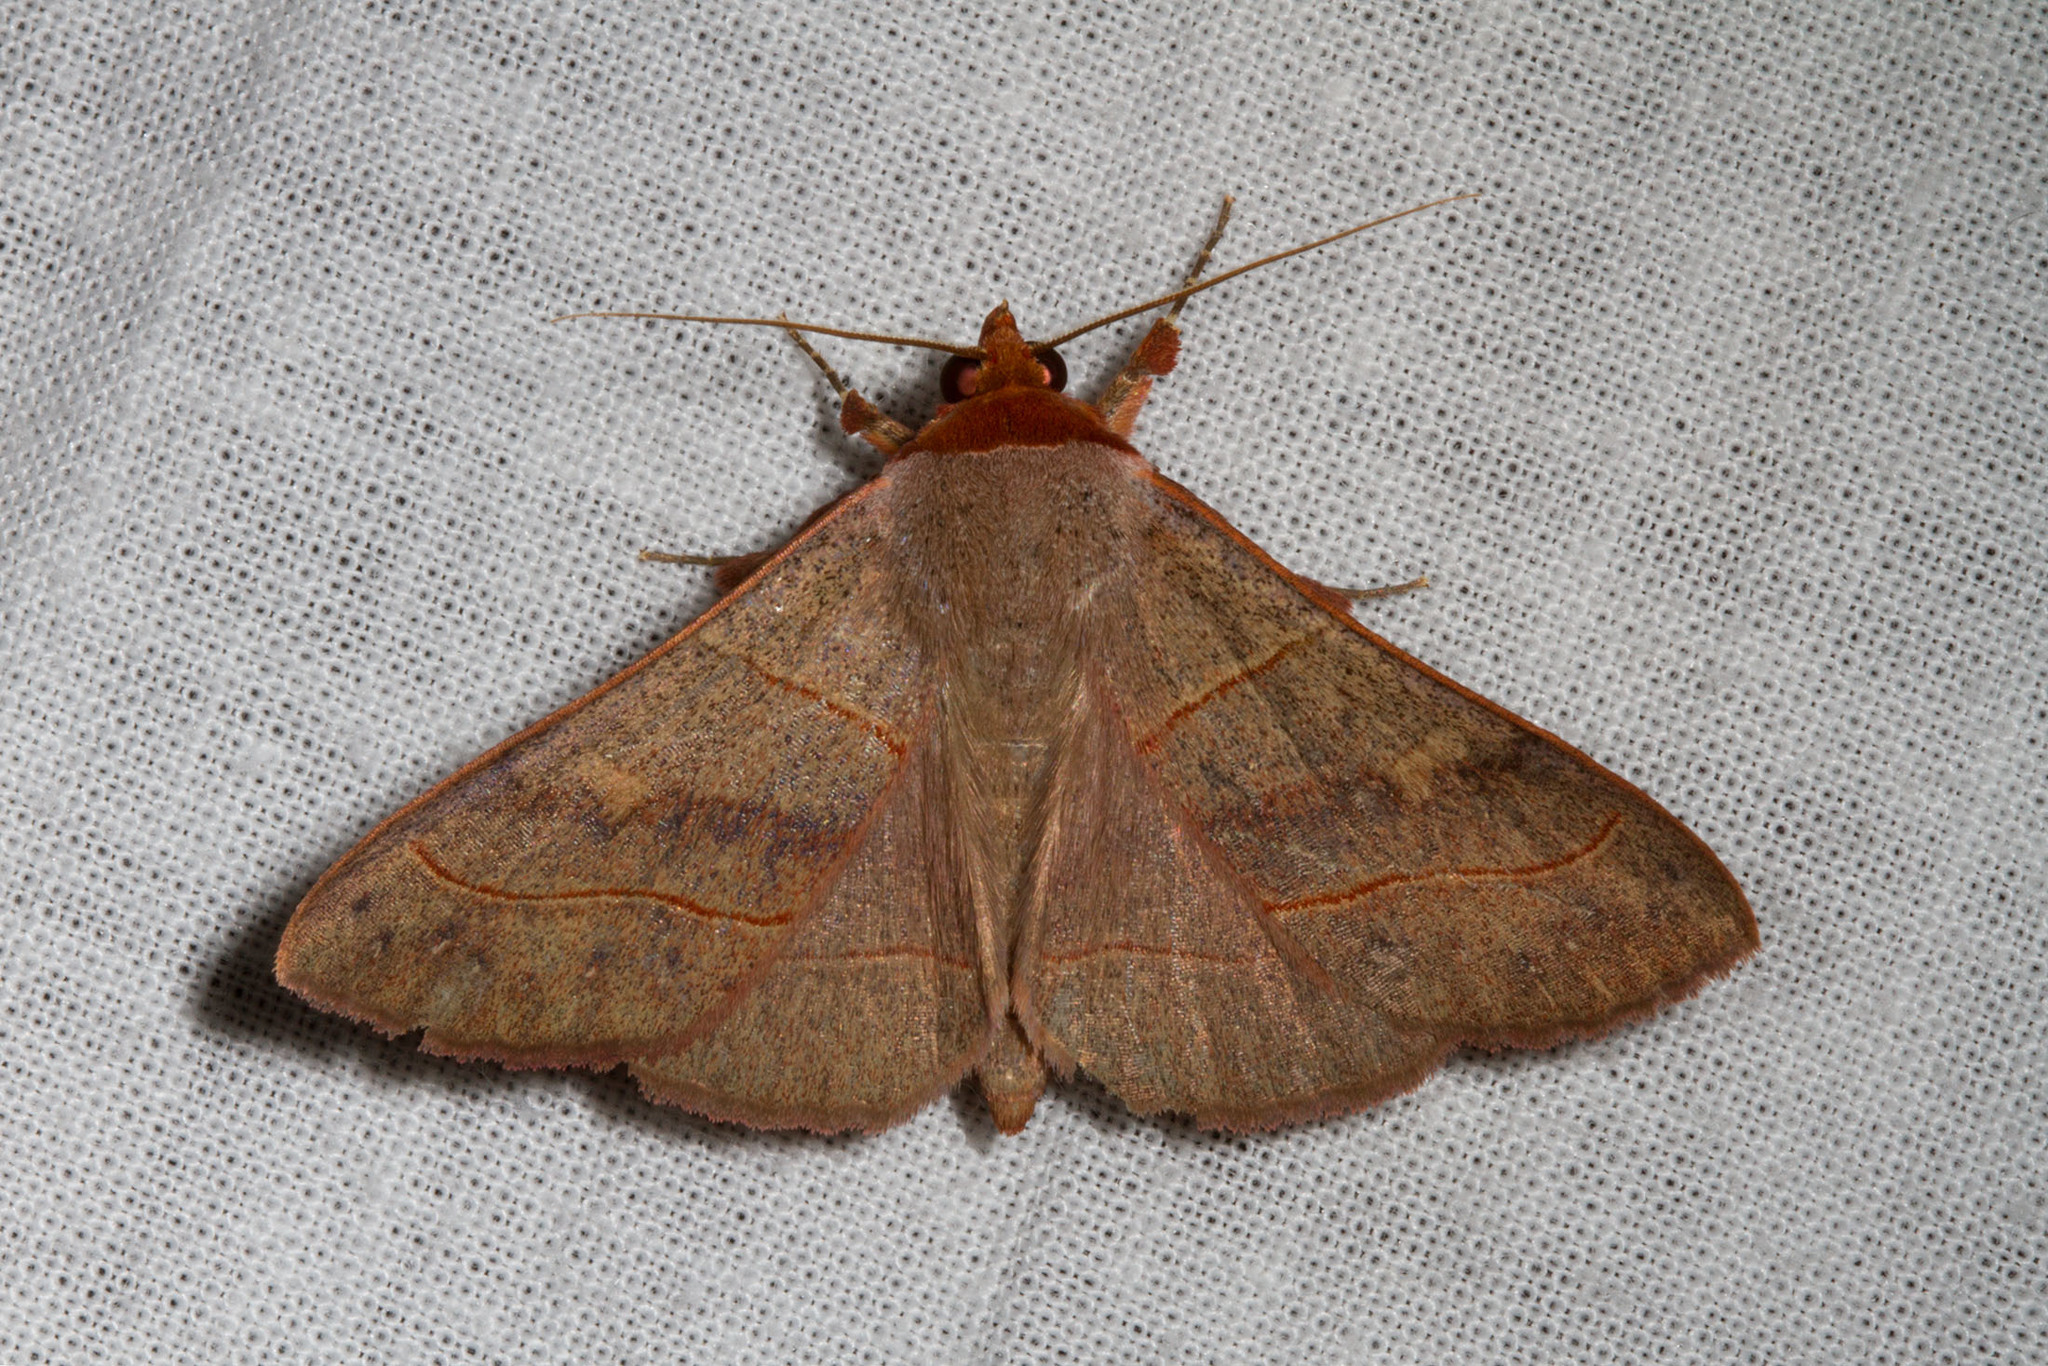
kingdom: Animalia
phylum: Arthropoda
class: Insecta
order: Lepidoptera
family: Erebidae
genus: Panopoda
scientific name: Panopoda rufimargo
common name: Red-lined panopoda moth
